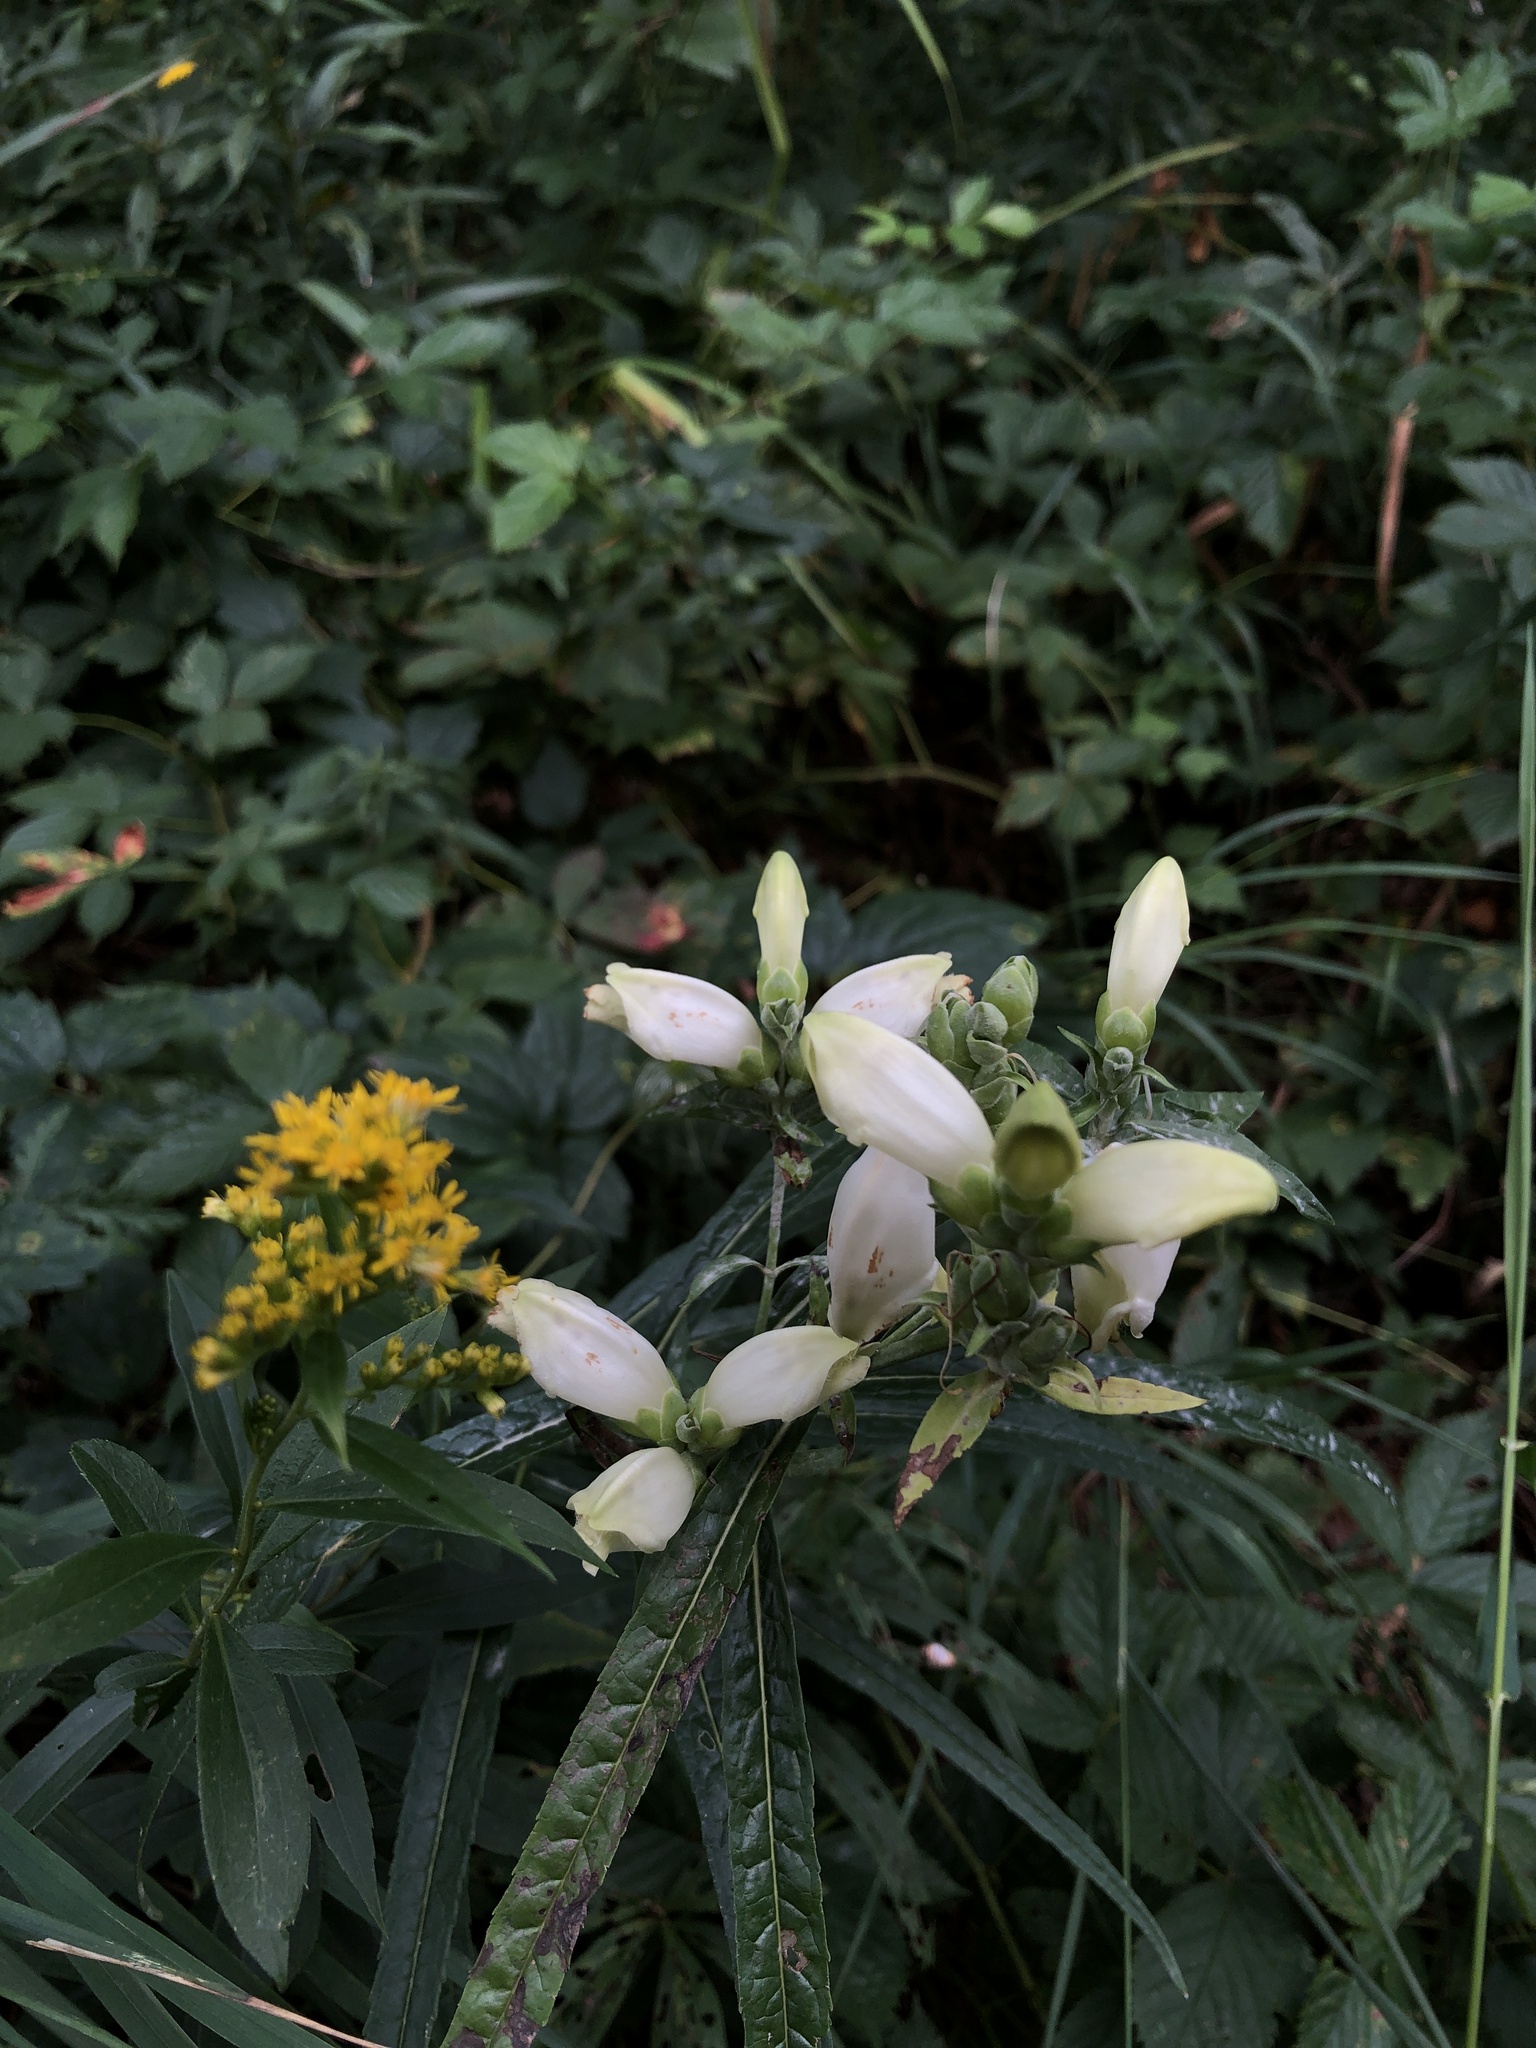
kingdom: Plantae
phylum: Tracheophyta
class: Magnoliopsida
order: Lamiales
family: Plantaginaceae
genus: Chelone
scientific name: Chelone glabra
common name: Snakehead
